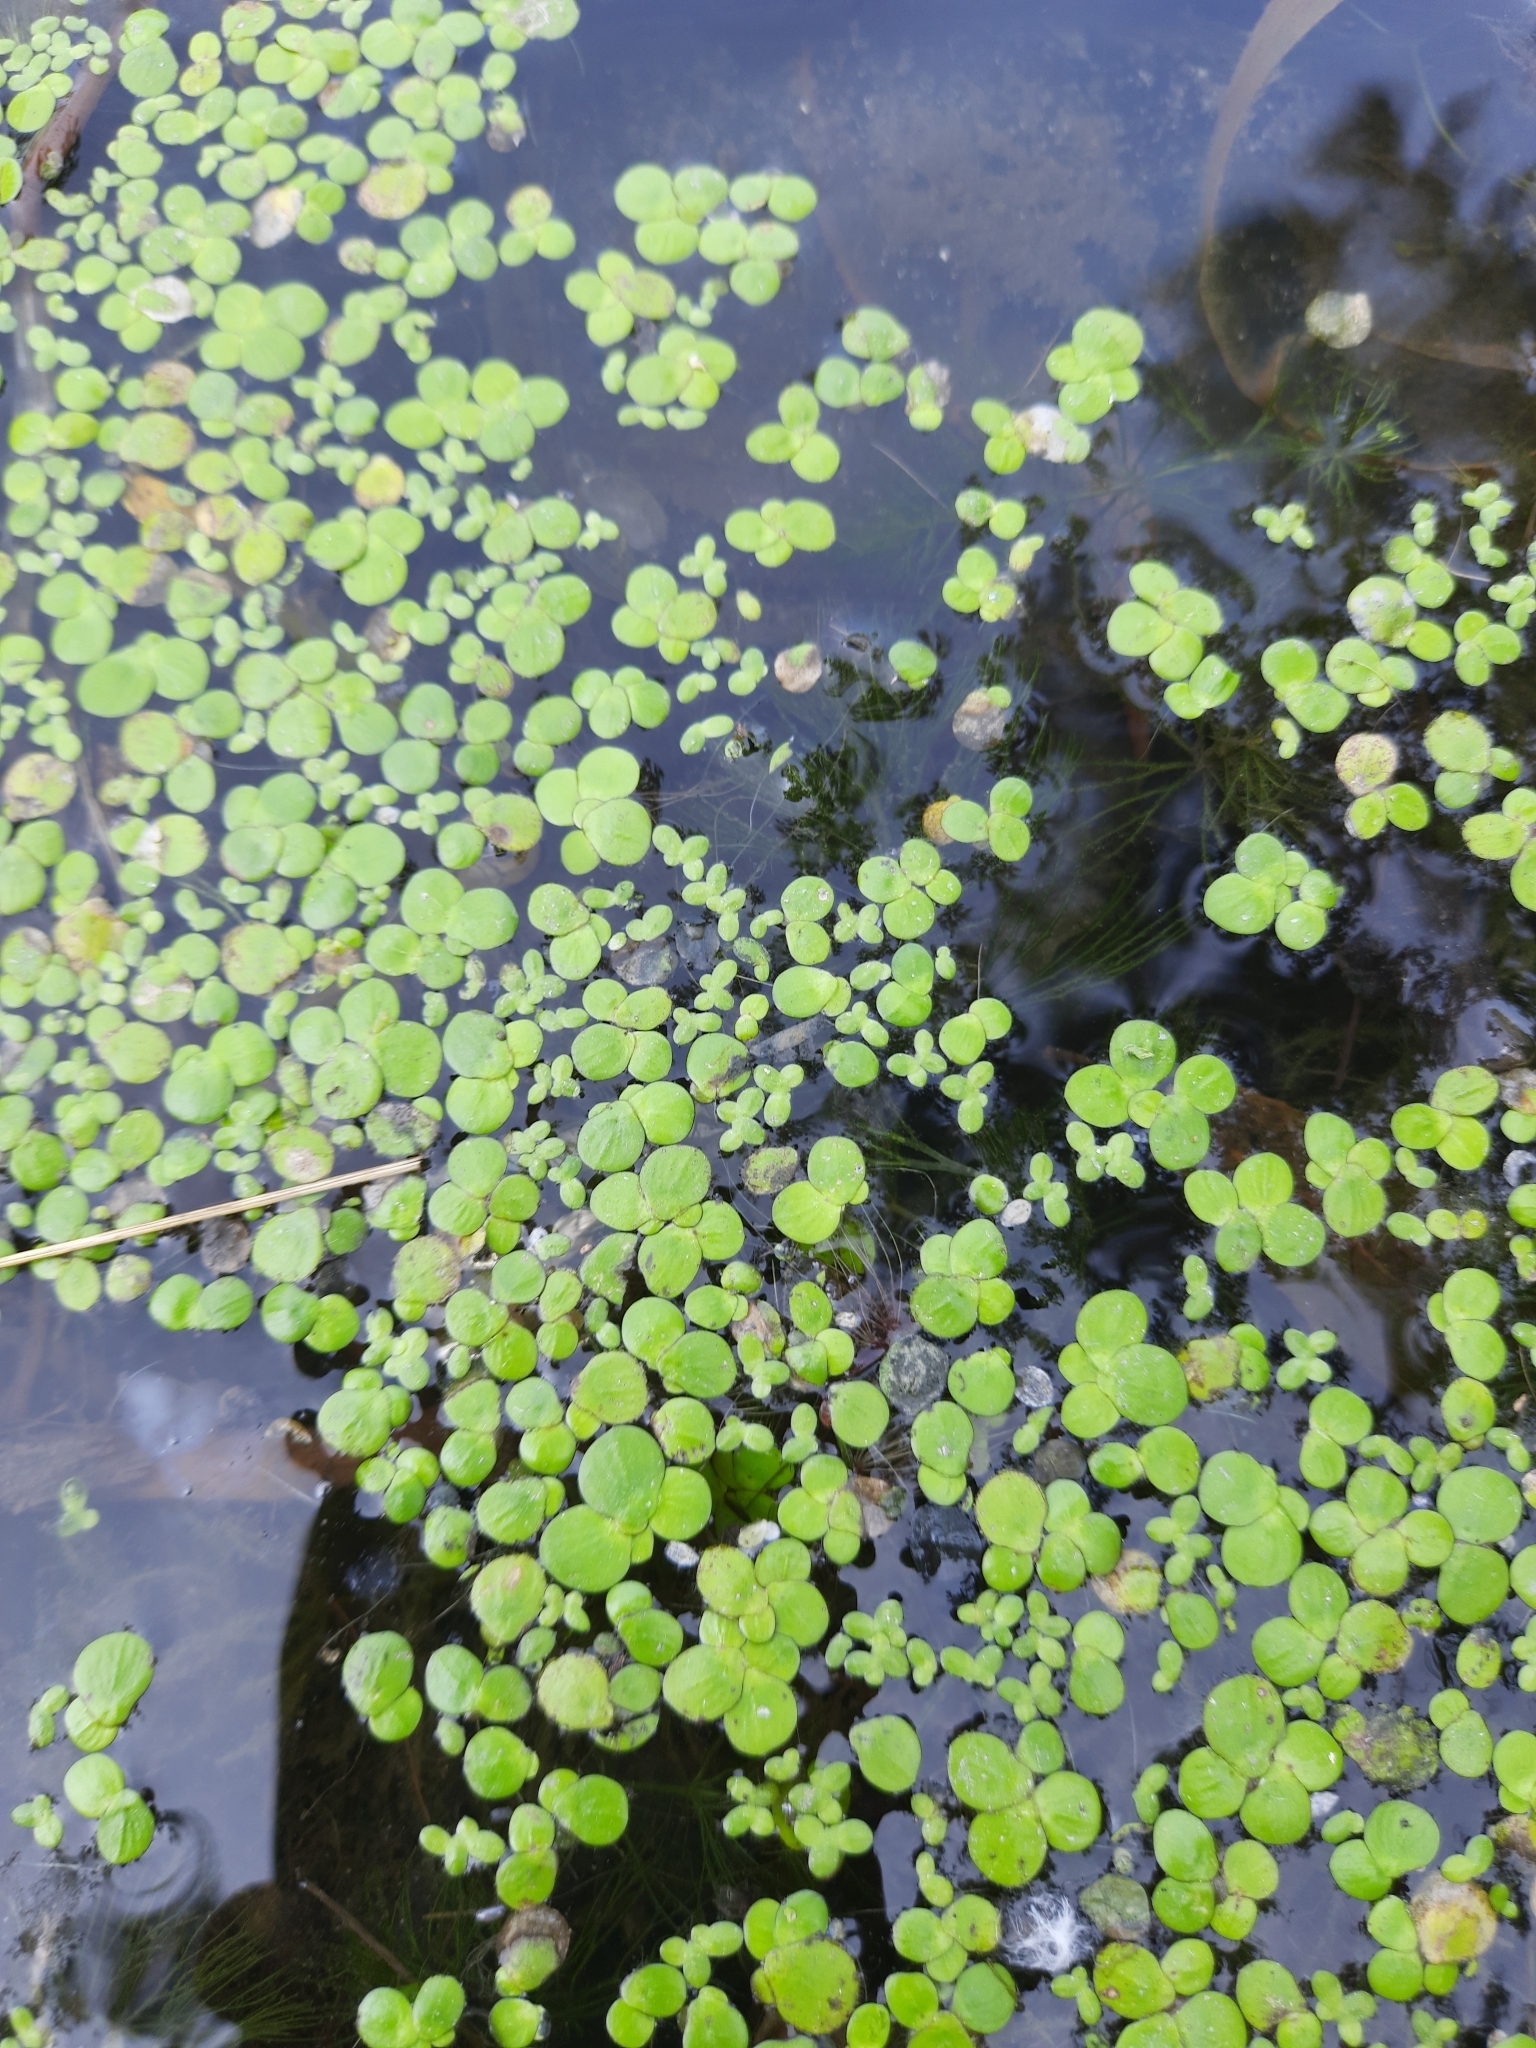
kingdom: Plantae
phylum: Tracheophyta
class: Liliopsida
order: Alismatales
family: Araceae
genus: Spirodela
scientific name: Spirodela polyrhiza
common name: Great duckweed
